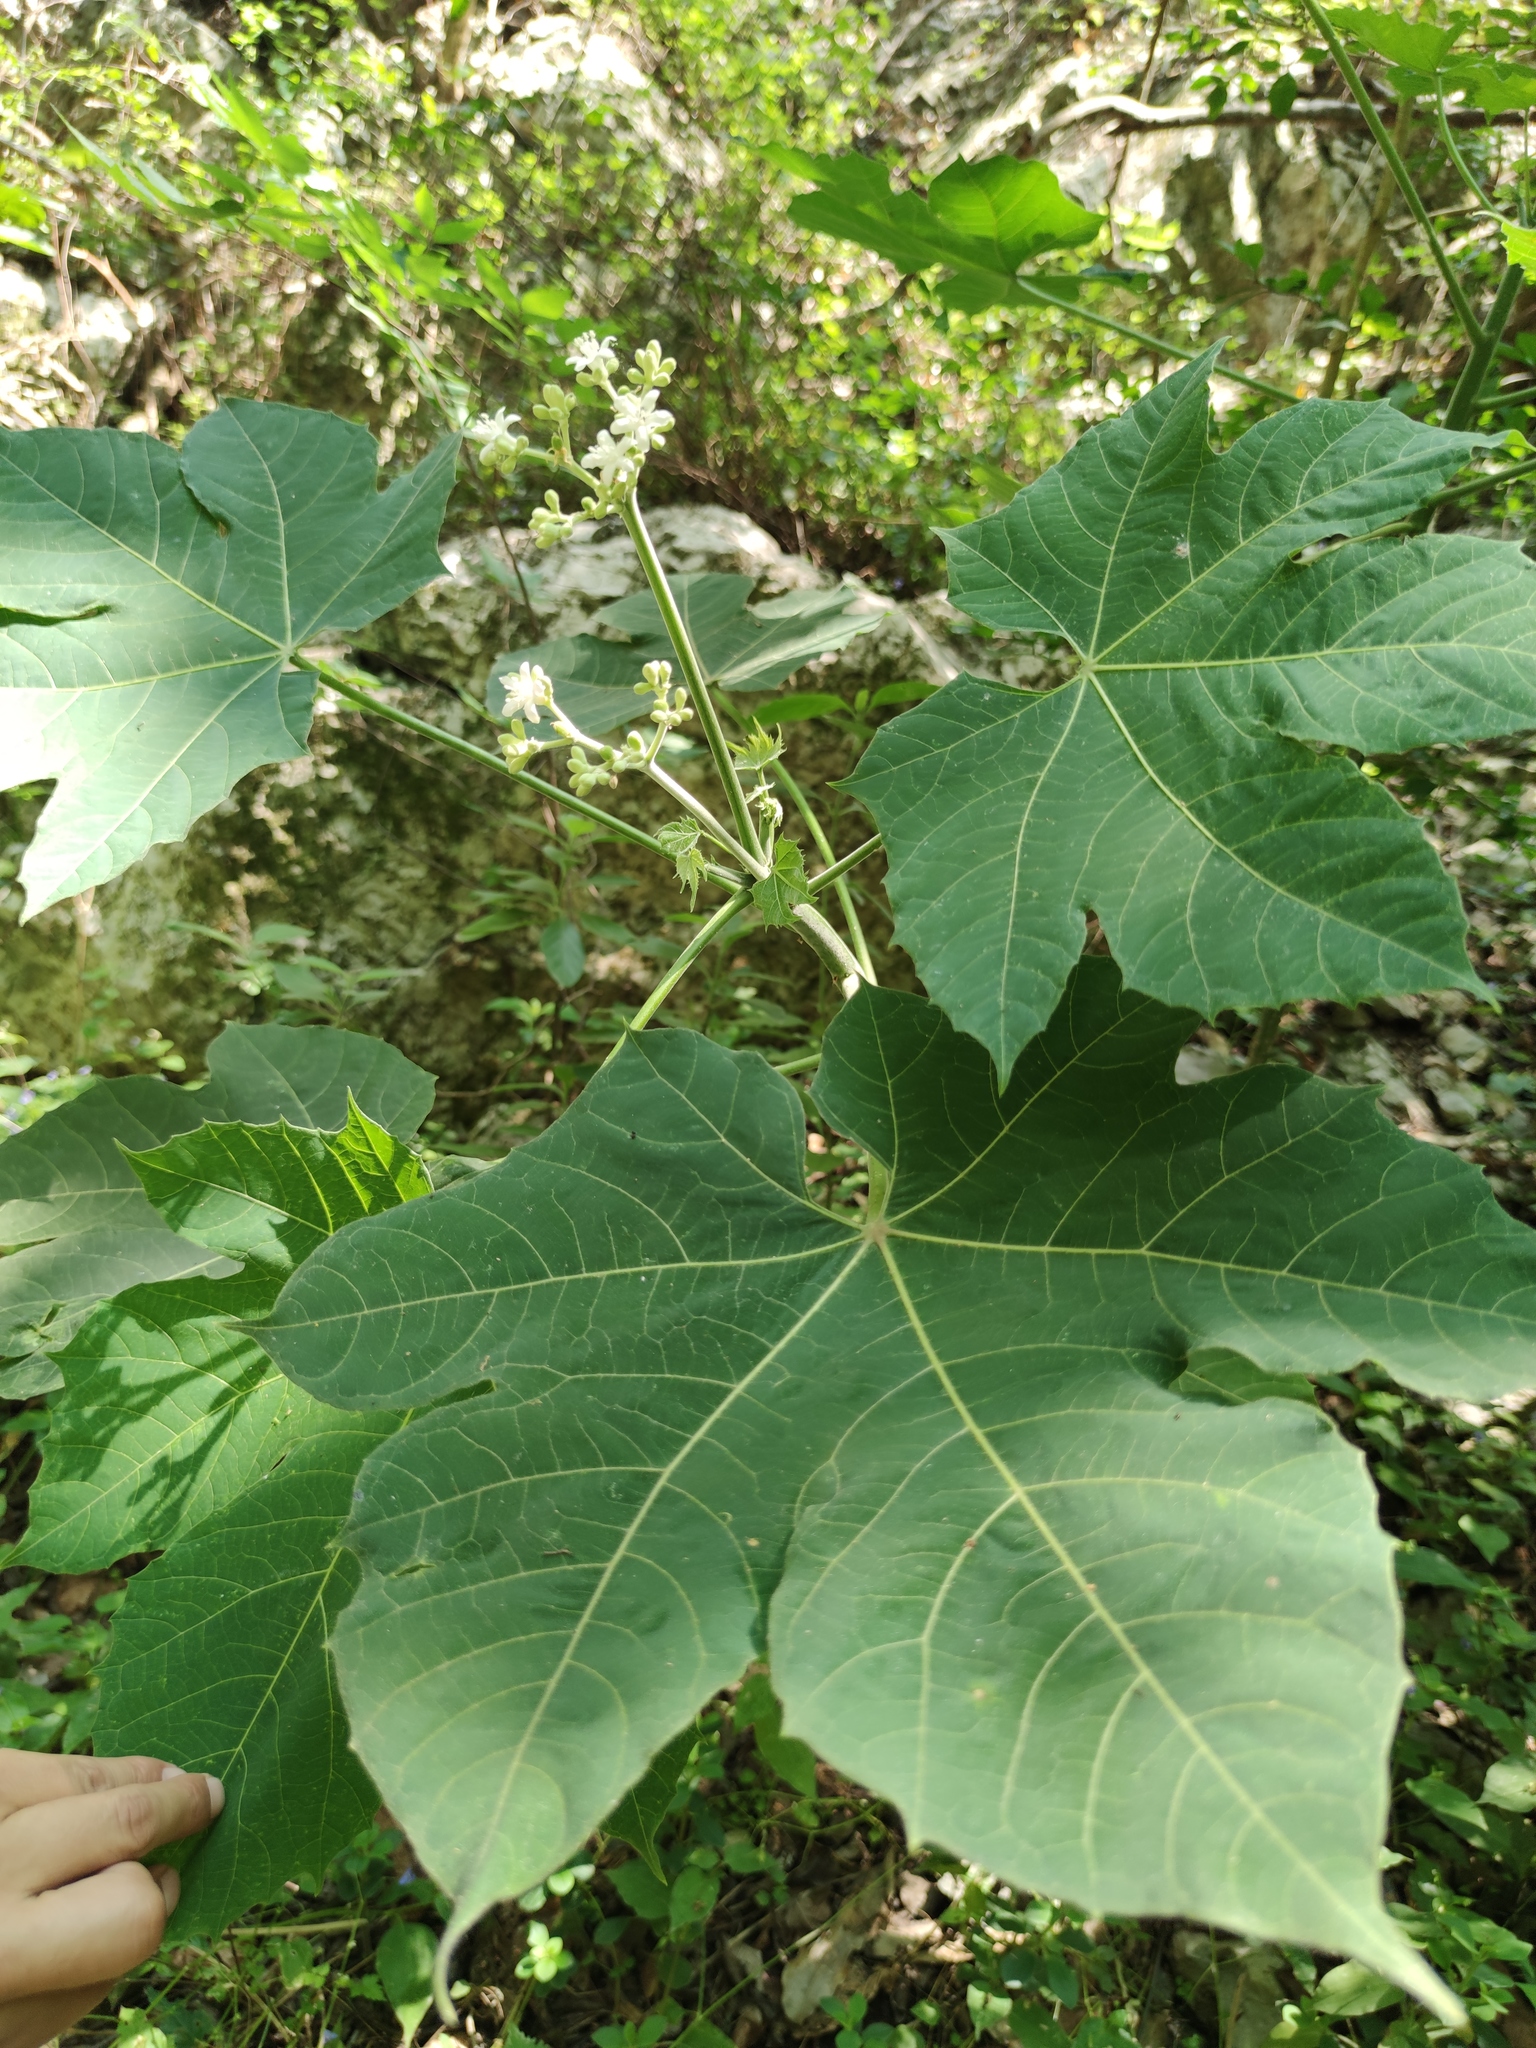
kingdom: Plantae
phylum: Tracheophyta
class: Magnoliopsida
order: Malpighiales
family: Euphorbiaceae
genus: Cnidoscolus
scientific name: Cnidoscolus multilobus
